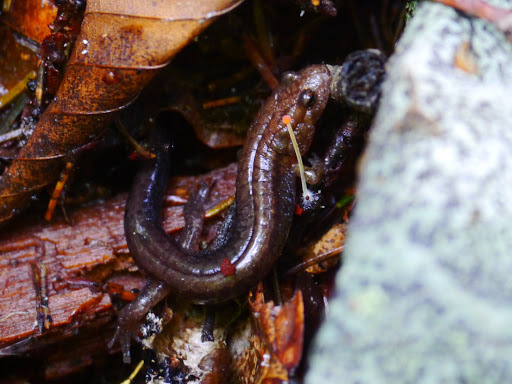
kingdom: Animalia
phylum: Chordata
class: Amphibia
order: Caudata
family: Plethodontidae
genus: Desmognathus
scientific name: Desmognathus ochrophaeus
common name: Allegheny mountain dusky salamander
